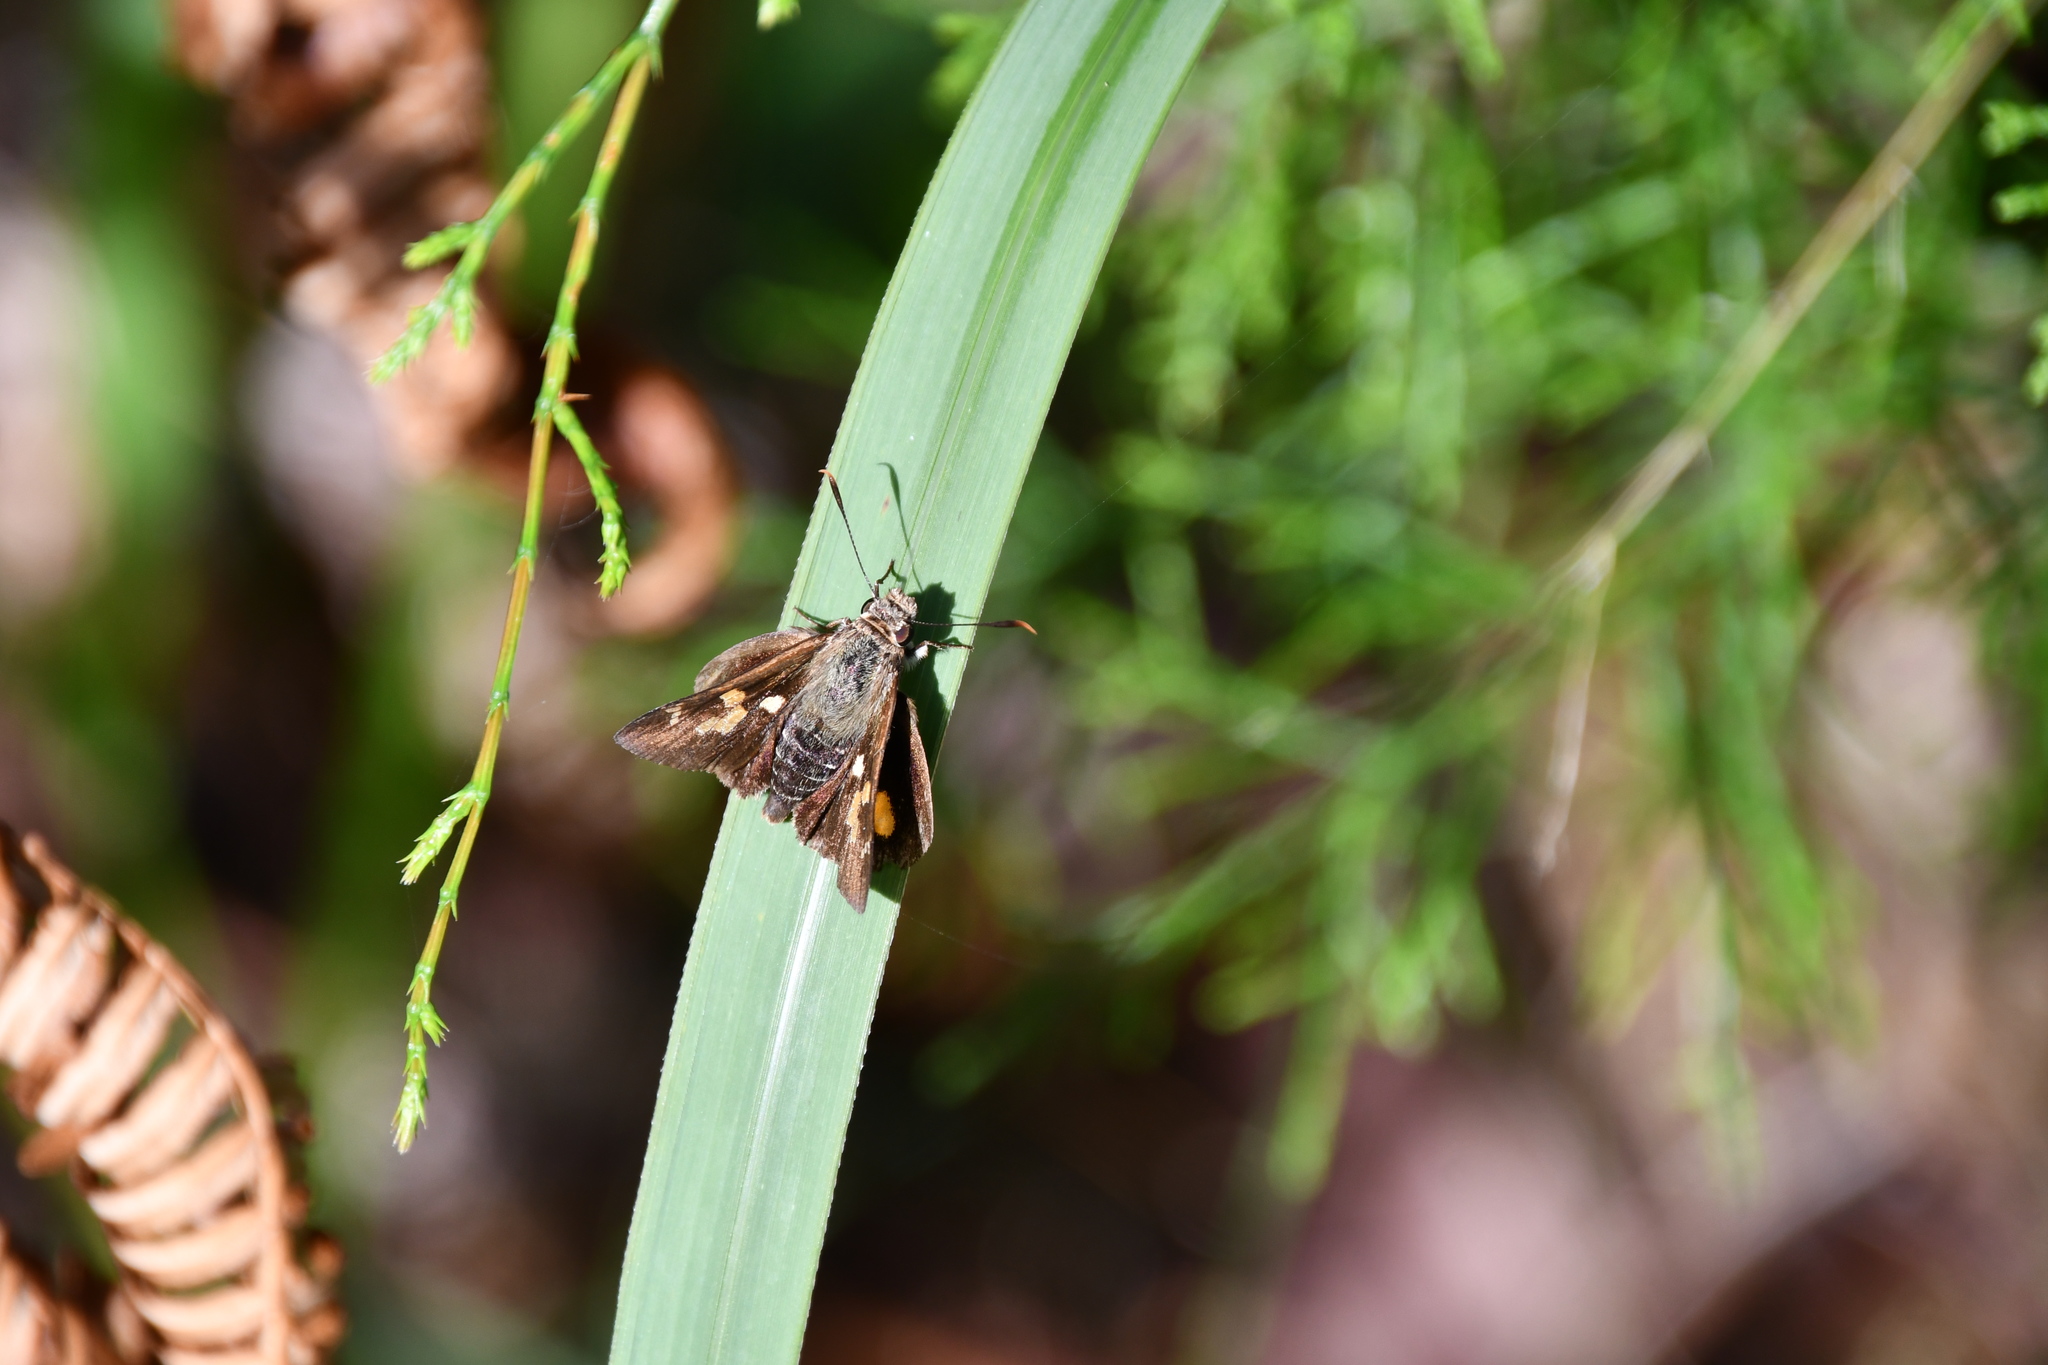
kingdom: Animalia
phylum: Arthropoda
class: Insecta
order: Lepidoptera
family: Hesperiidae
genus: Trapezites
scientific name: Trapezites praxedes
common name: Southern silver ochre
